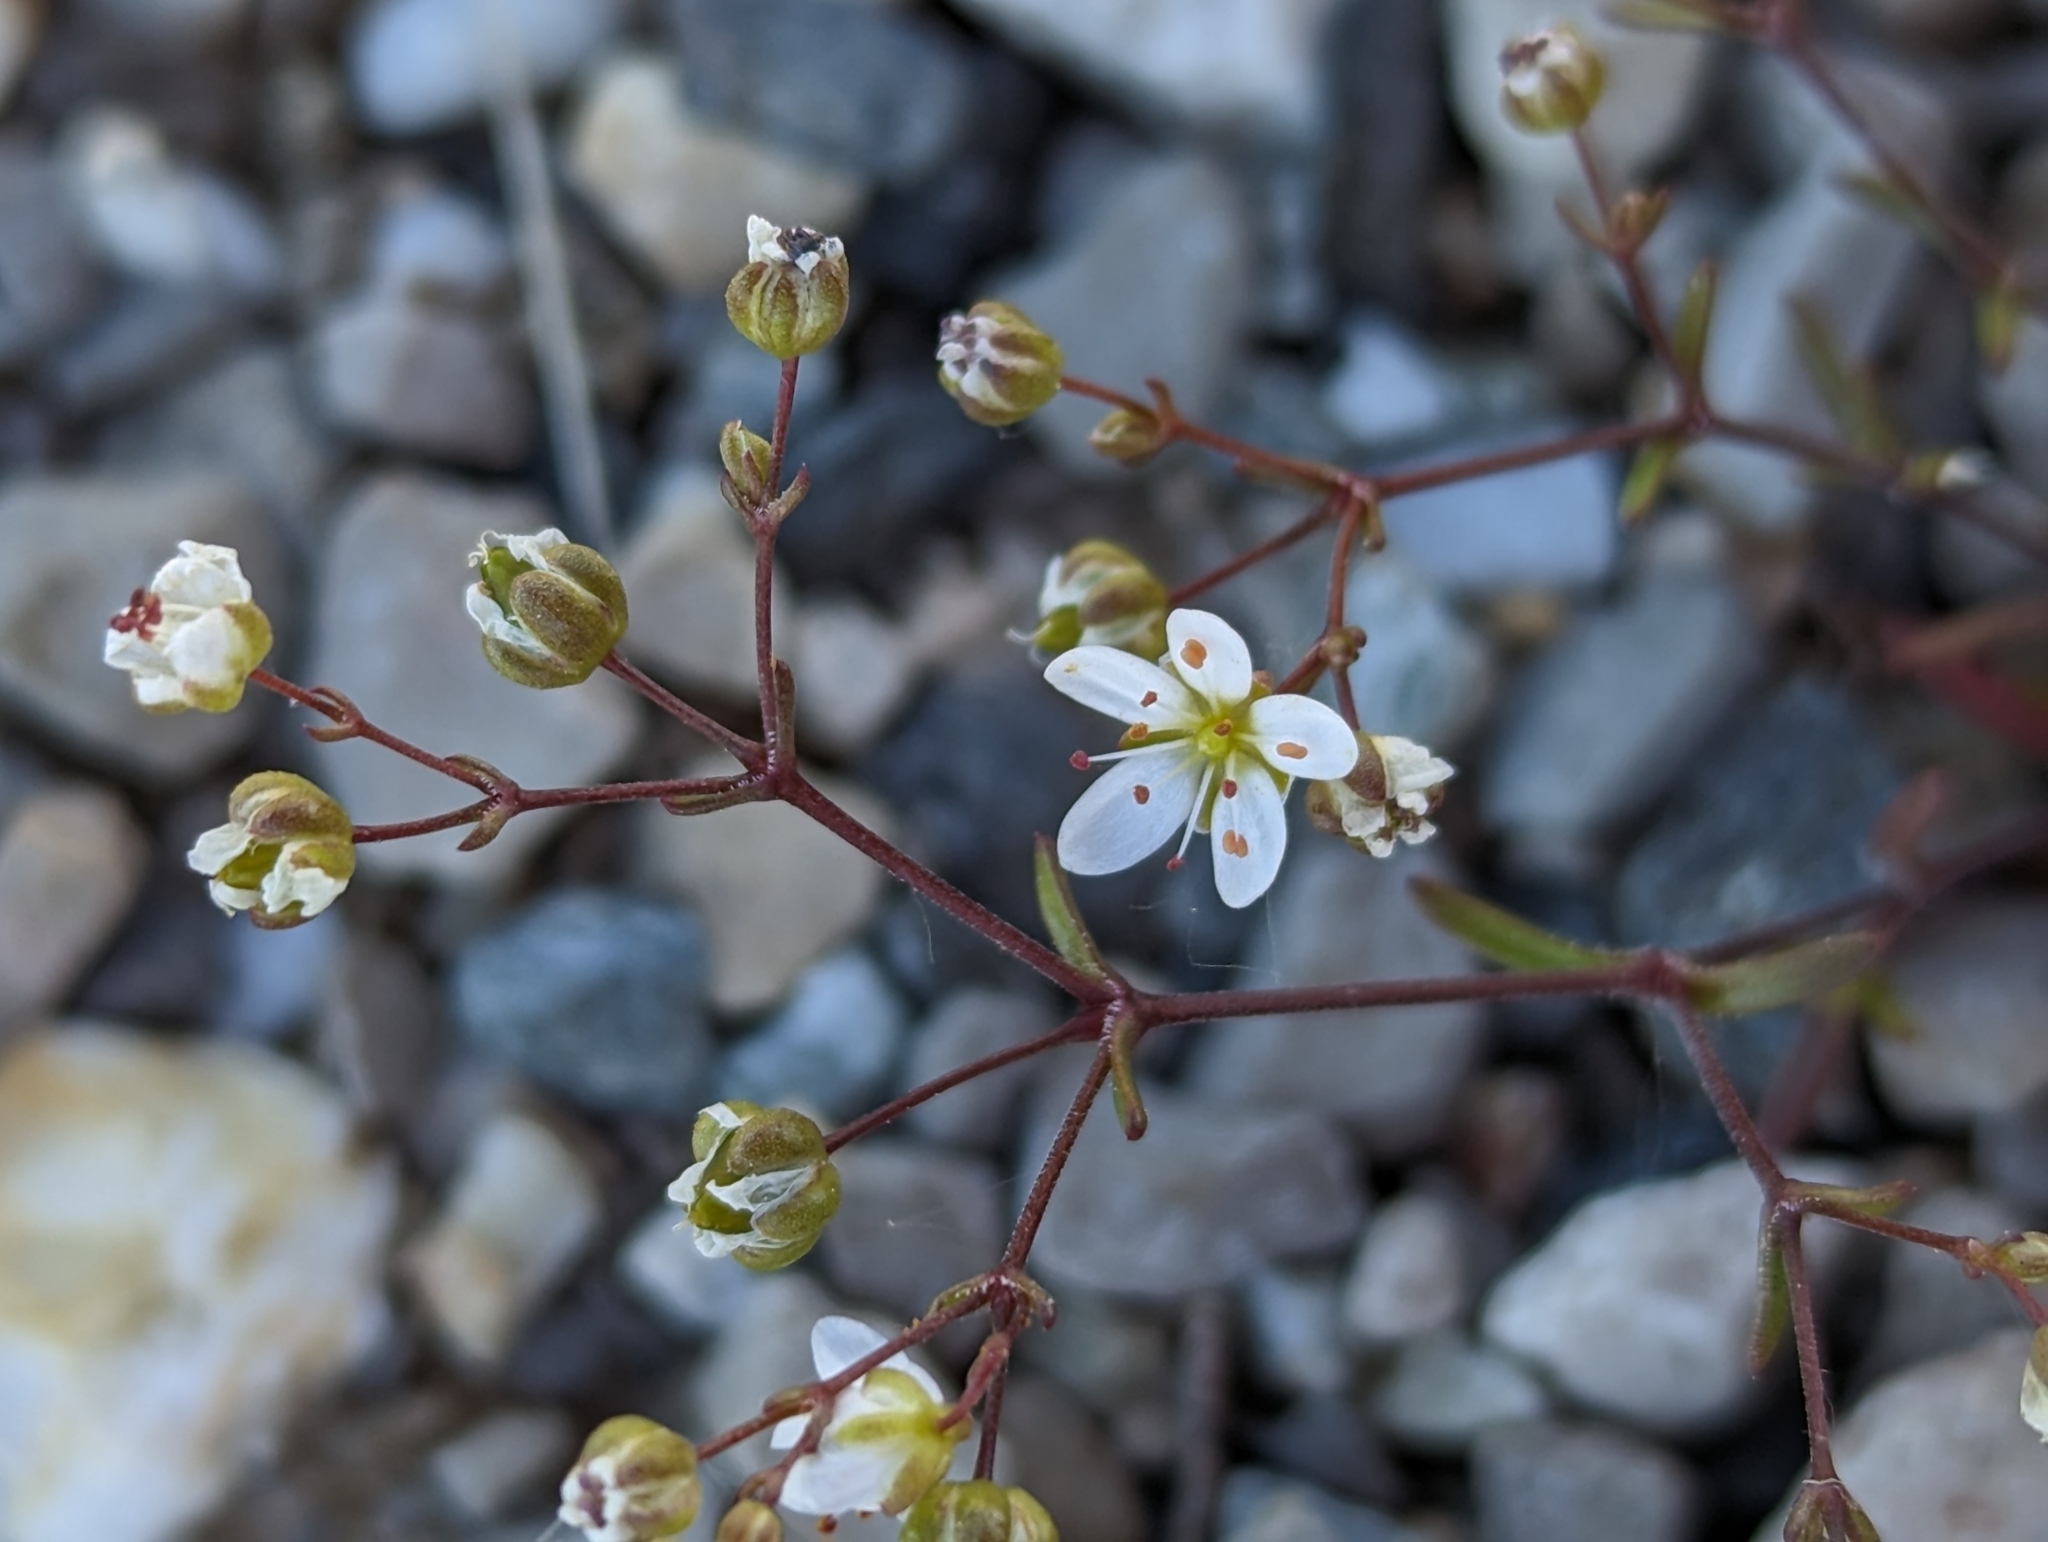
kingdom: Plantae
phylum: Tracheophyta
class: Magnoliopsida
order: Caryophyllales
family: Caryophyllaceae
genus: Arenaria
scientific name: Arenaria controversa
